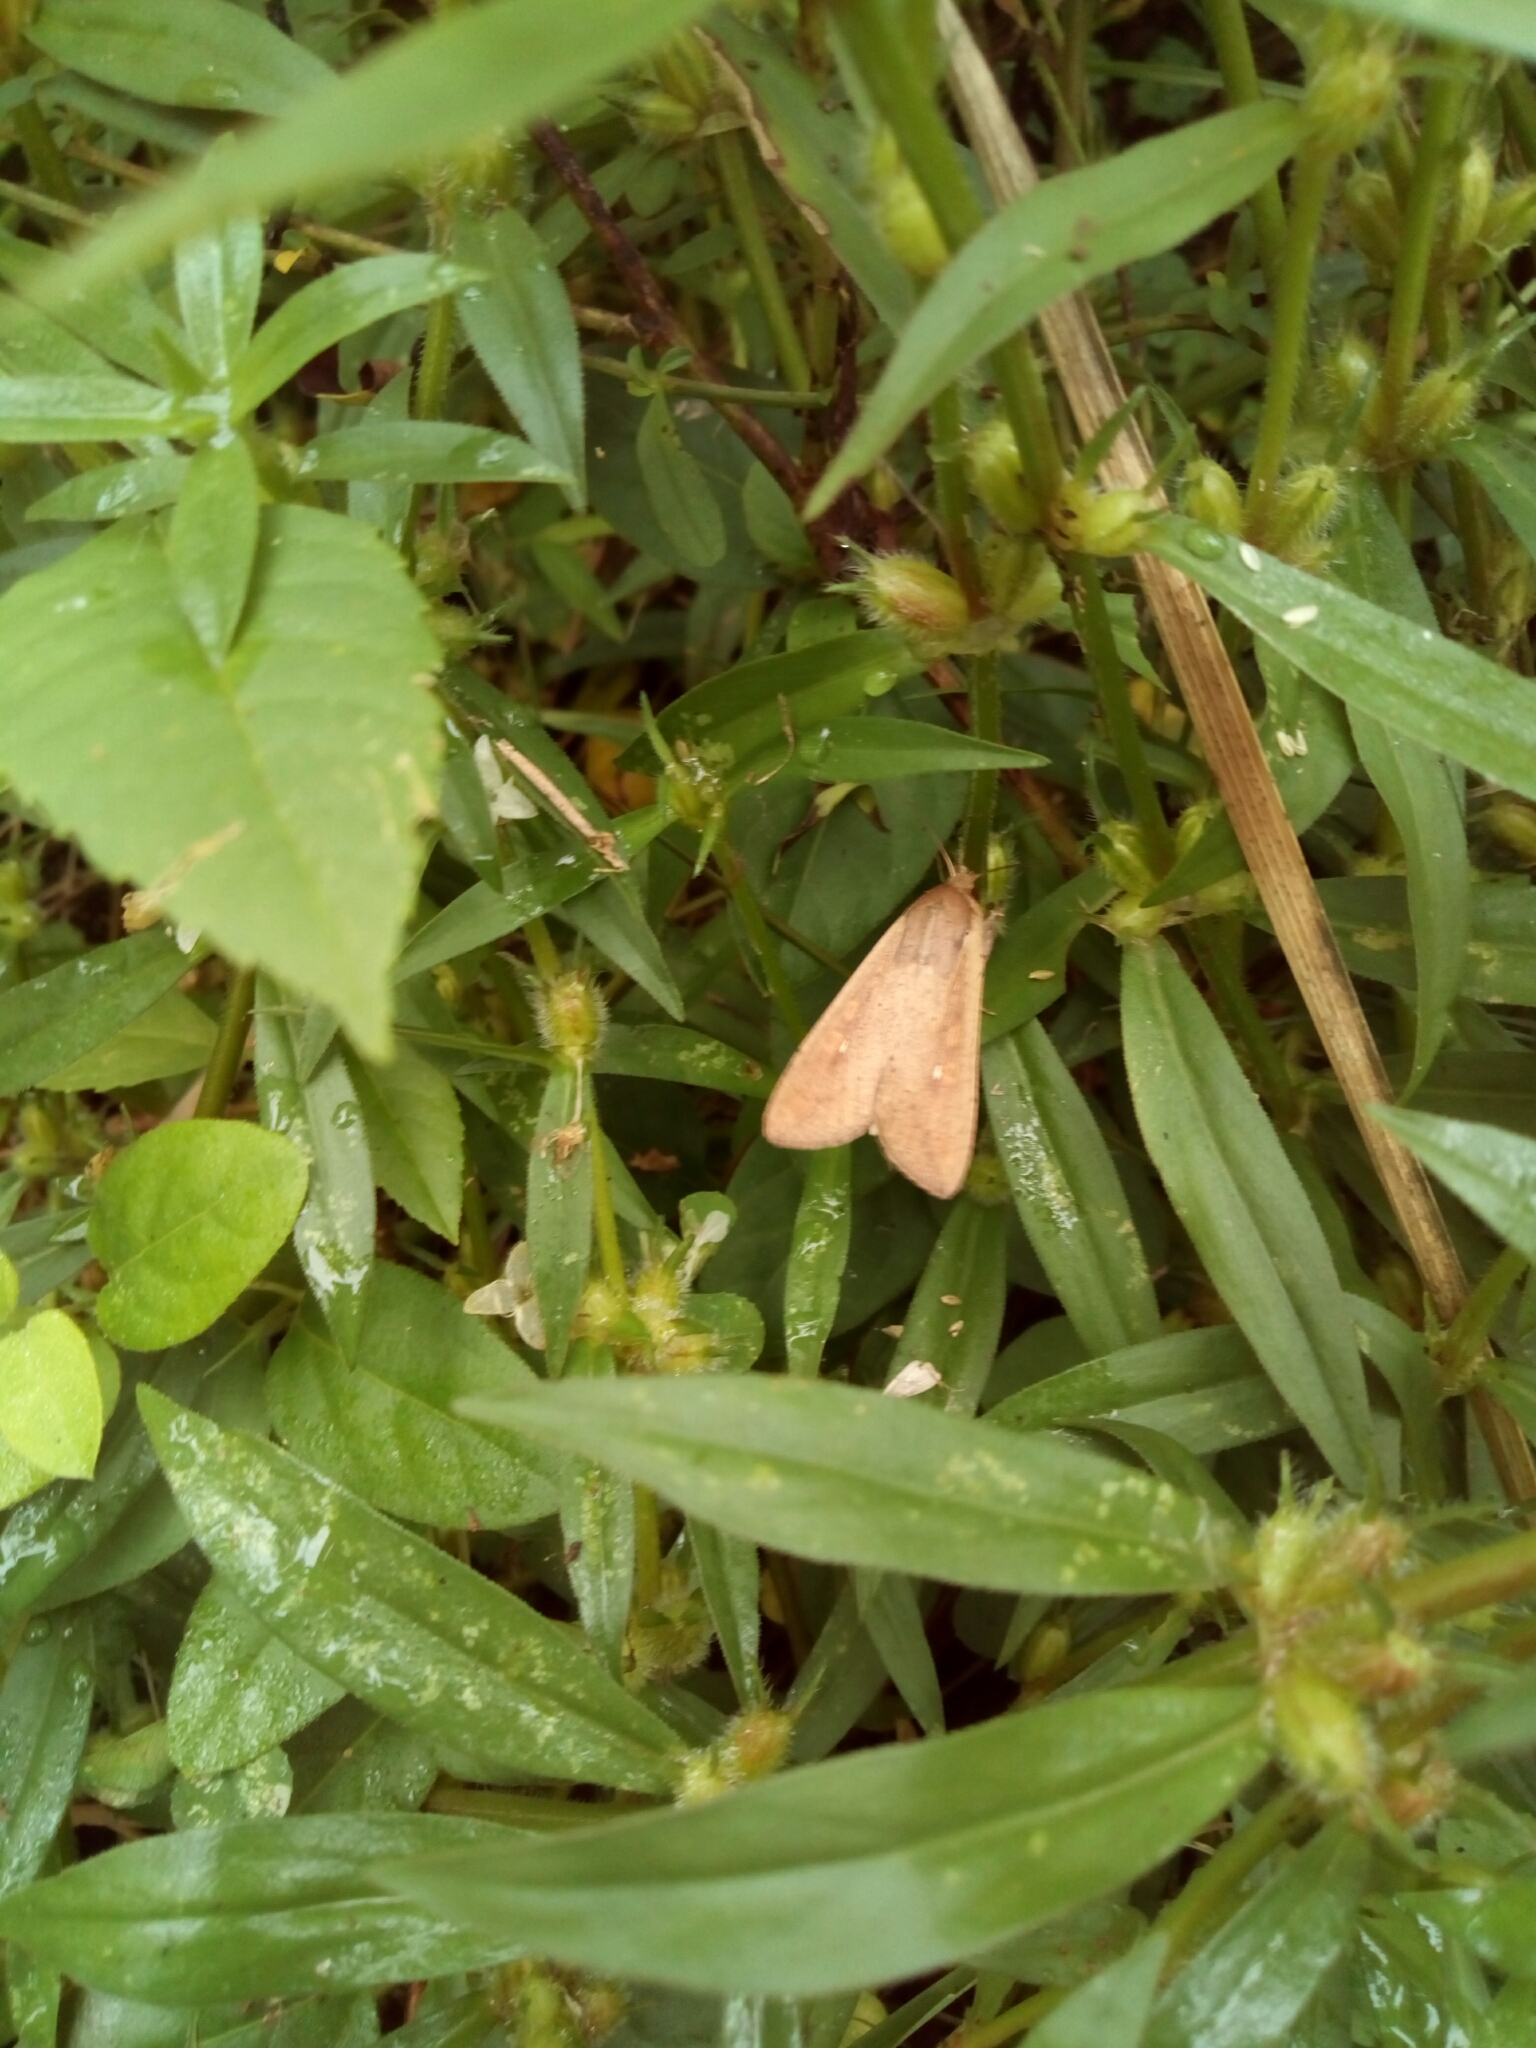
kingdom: Animalia
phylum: Arthropoda
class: Insecta
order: Lepidoptera
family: Noctuidae
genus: Mythimna
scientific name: Mythimna unipuncta
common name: White-speck
